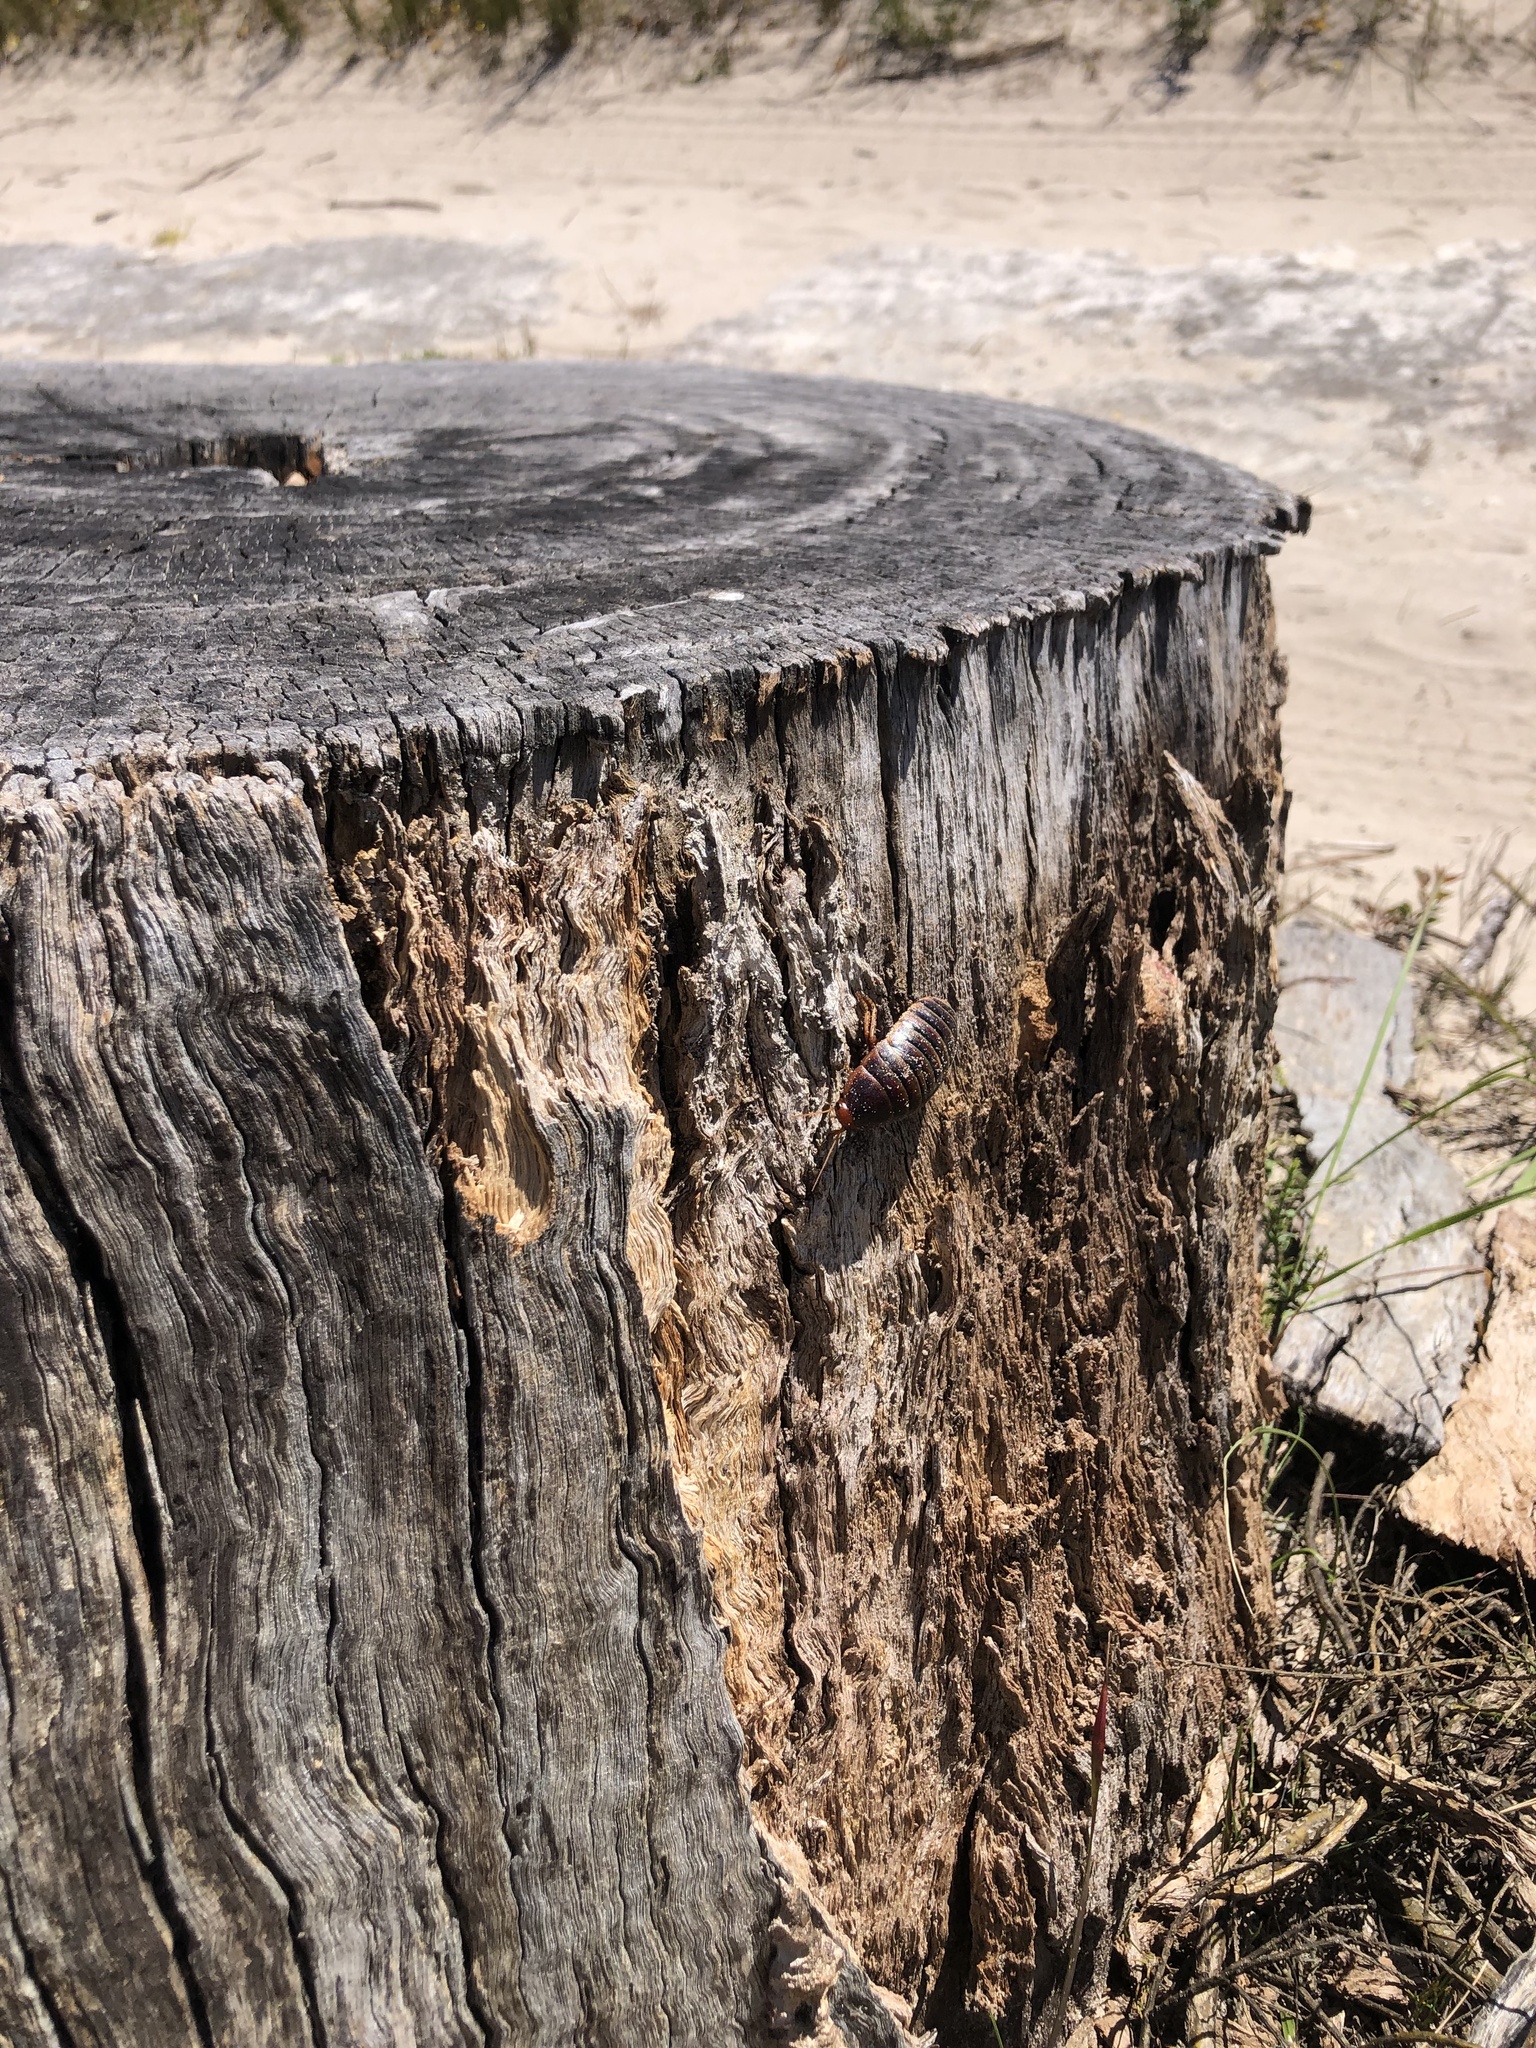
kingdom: Animalia
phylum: Arthropoda
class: Insecta
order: Blattodea
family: Blaberidae
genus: Aptera
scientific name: Aptera fusca
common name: Cape mountain cockroach
